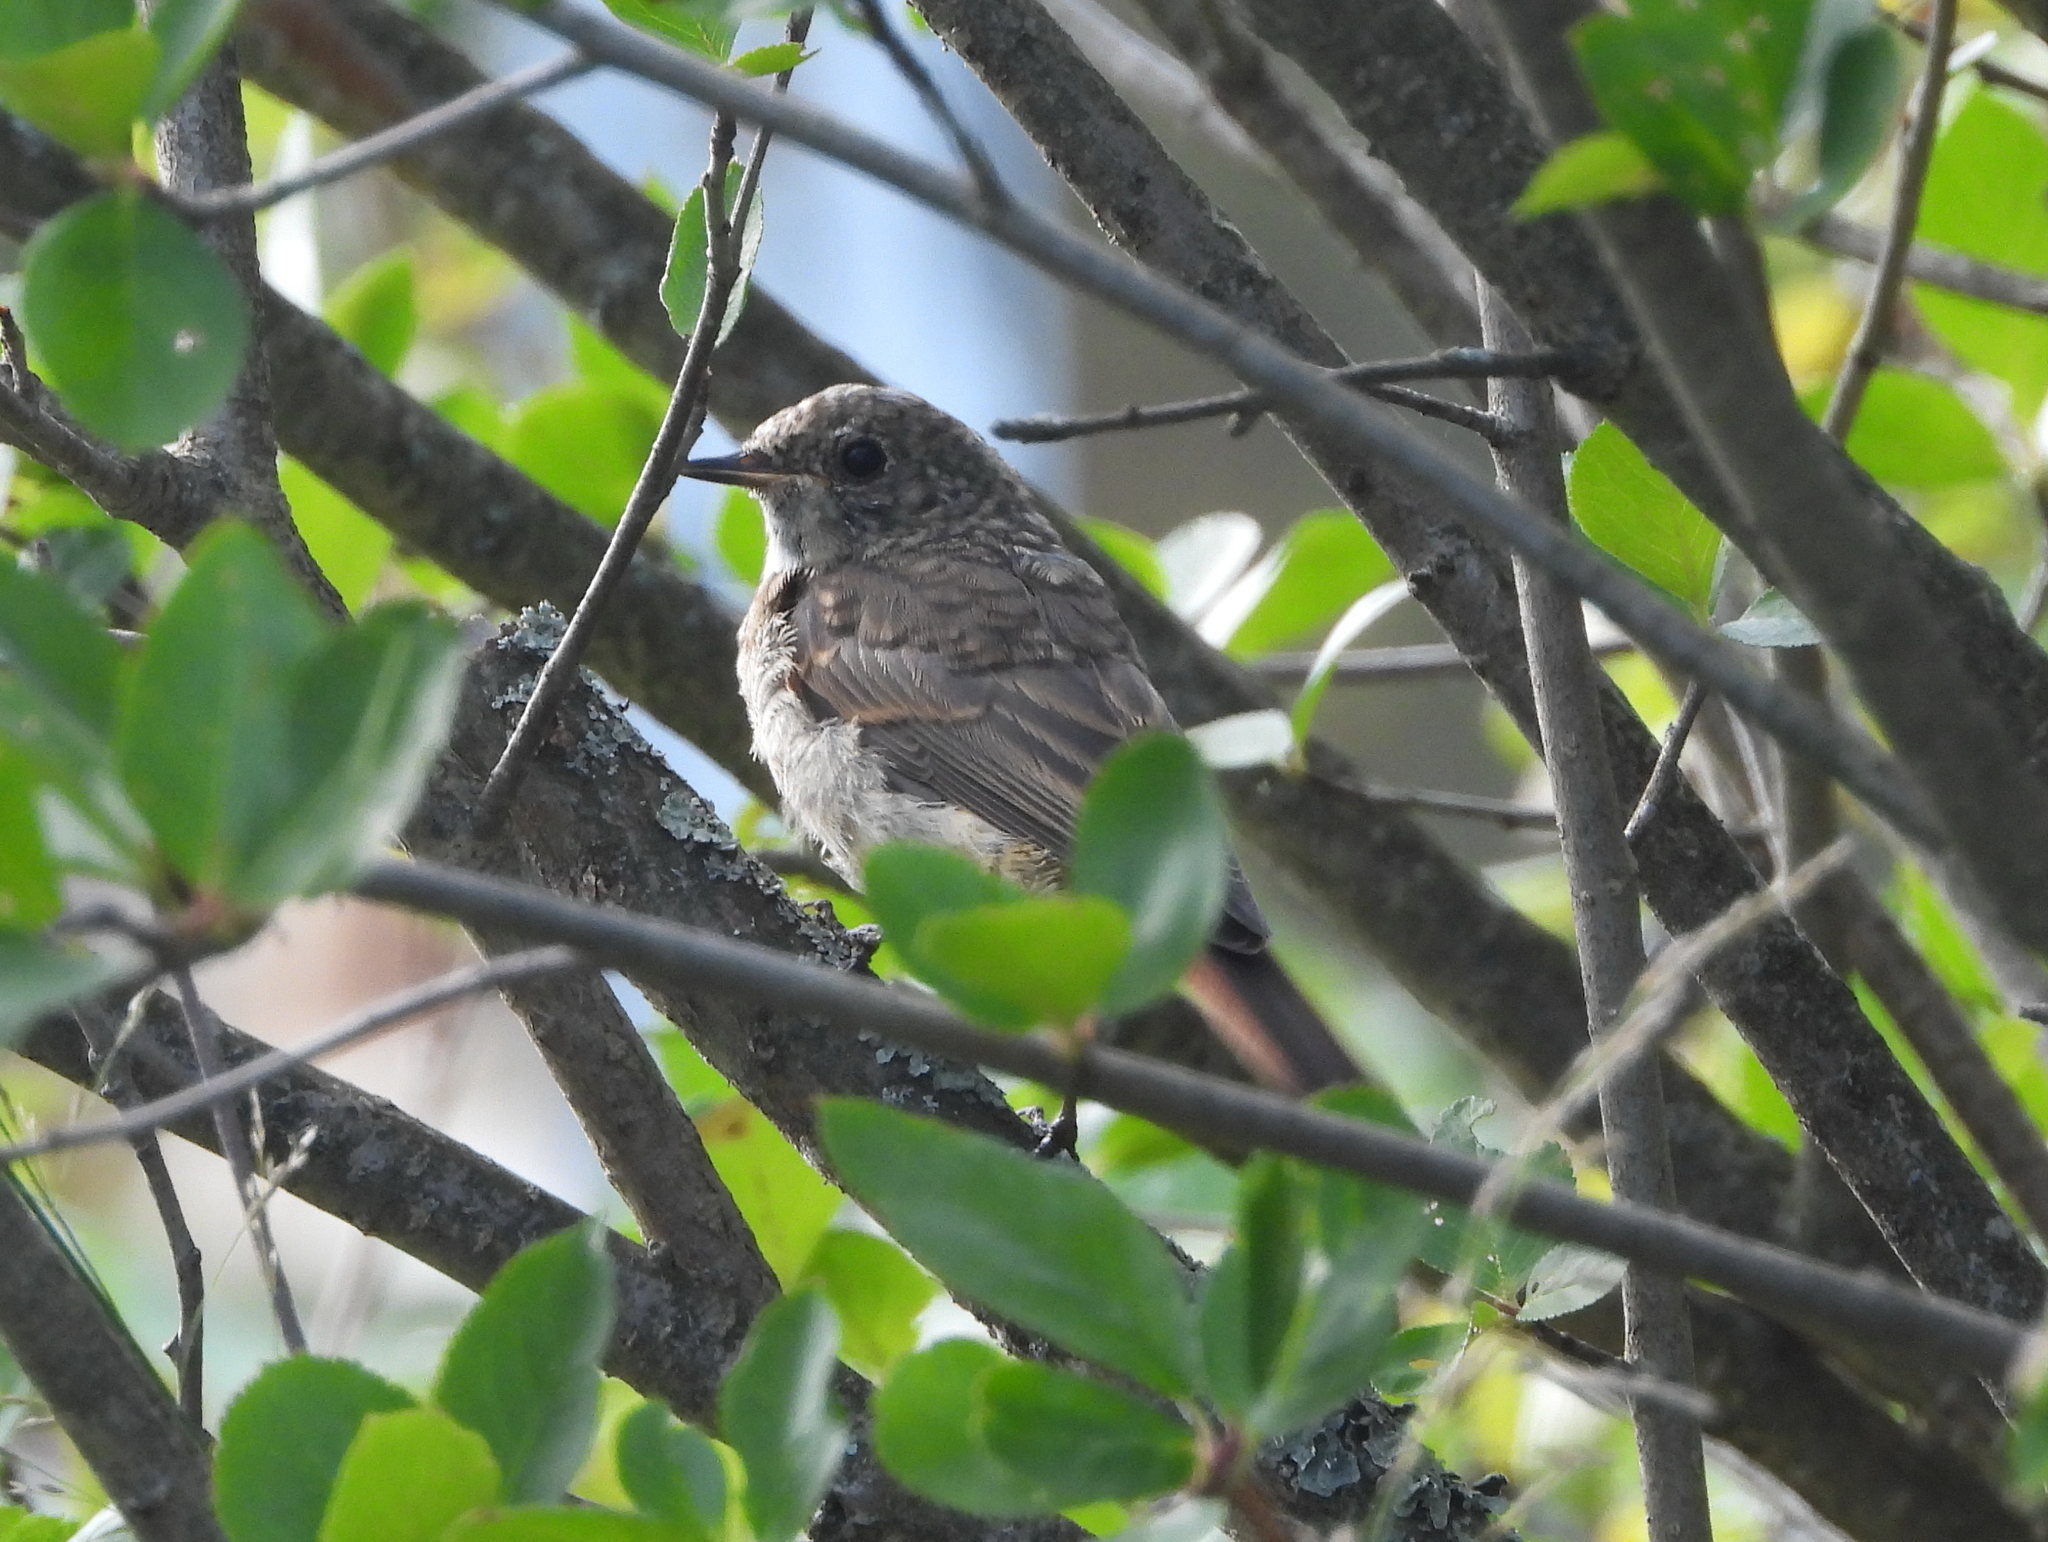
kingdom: Animalia
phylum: Chordata
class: Aves
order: Passeriformes
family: Muscicapidae
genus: Phoenicurus
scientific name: Phoenicurus phoenicurus
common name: Common redstart
